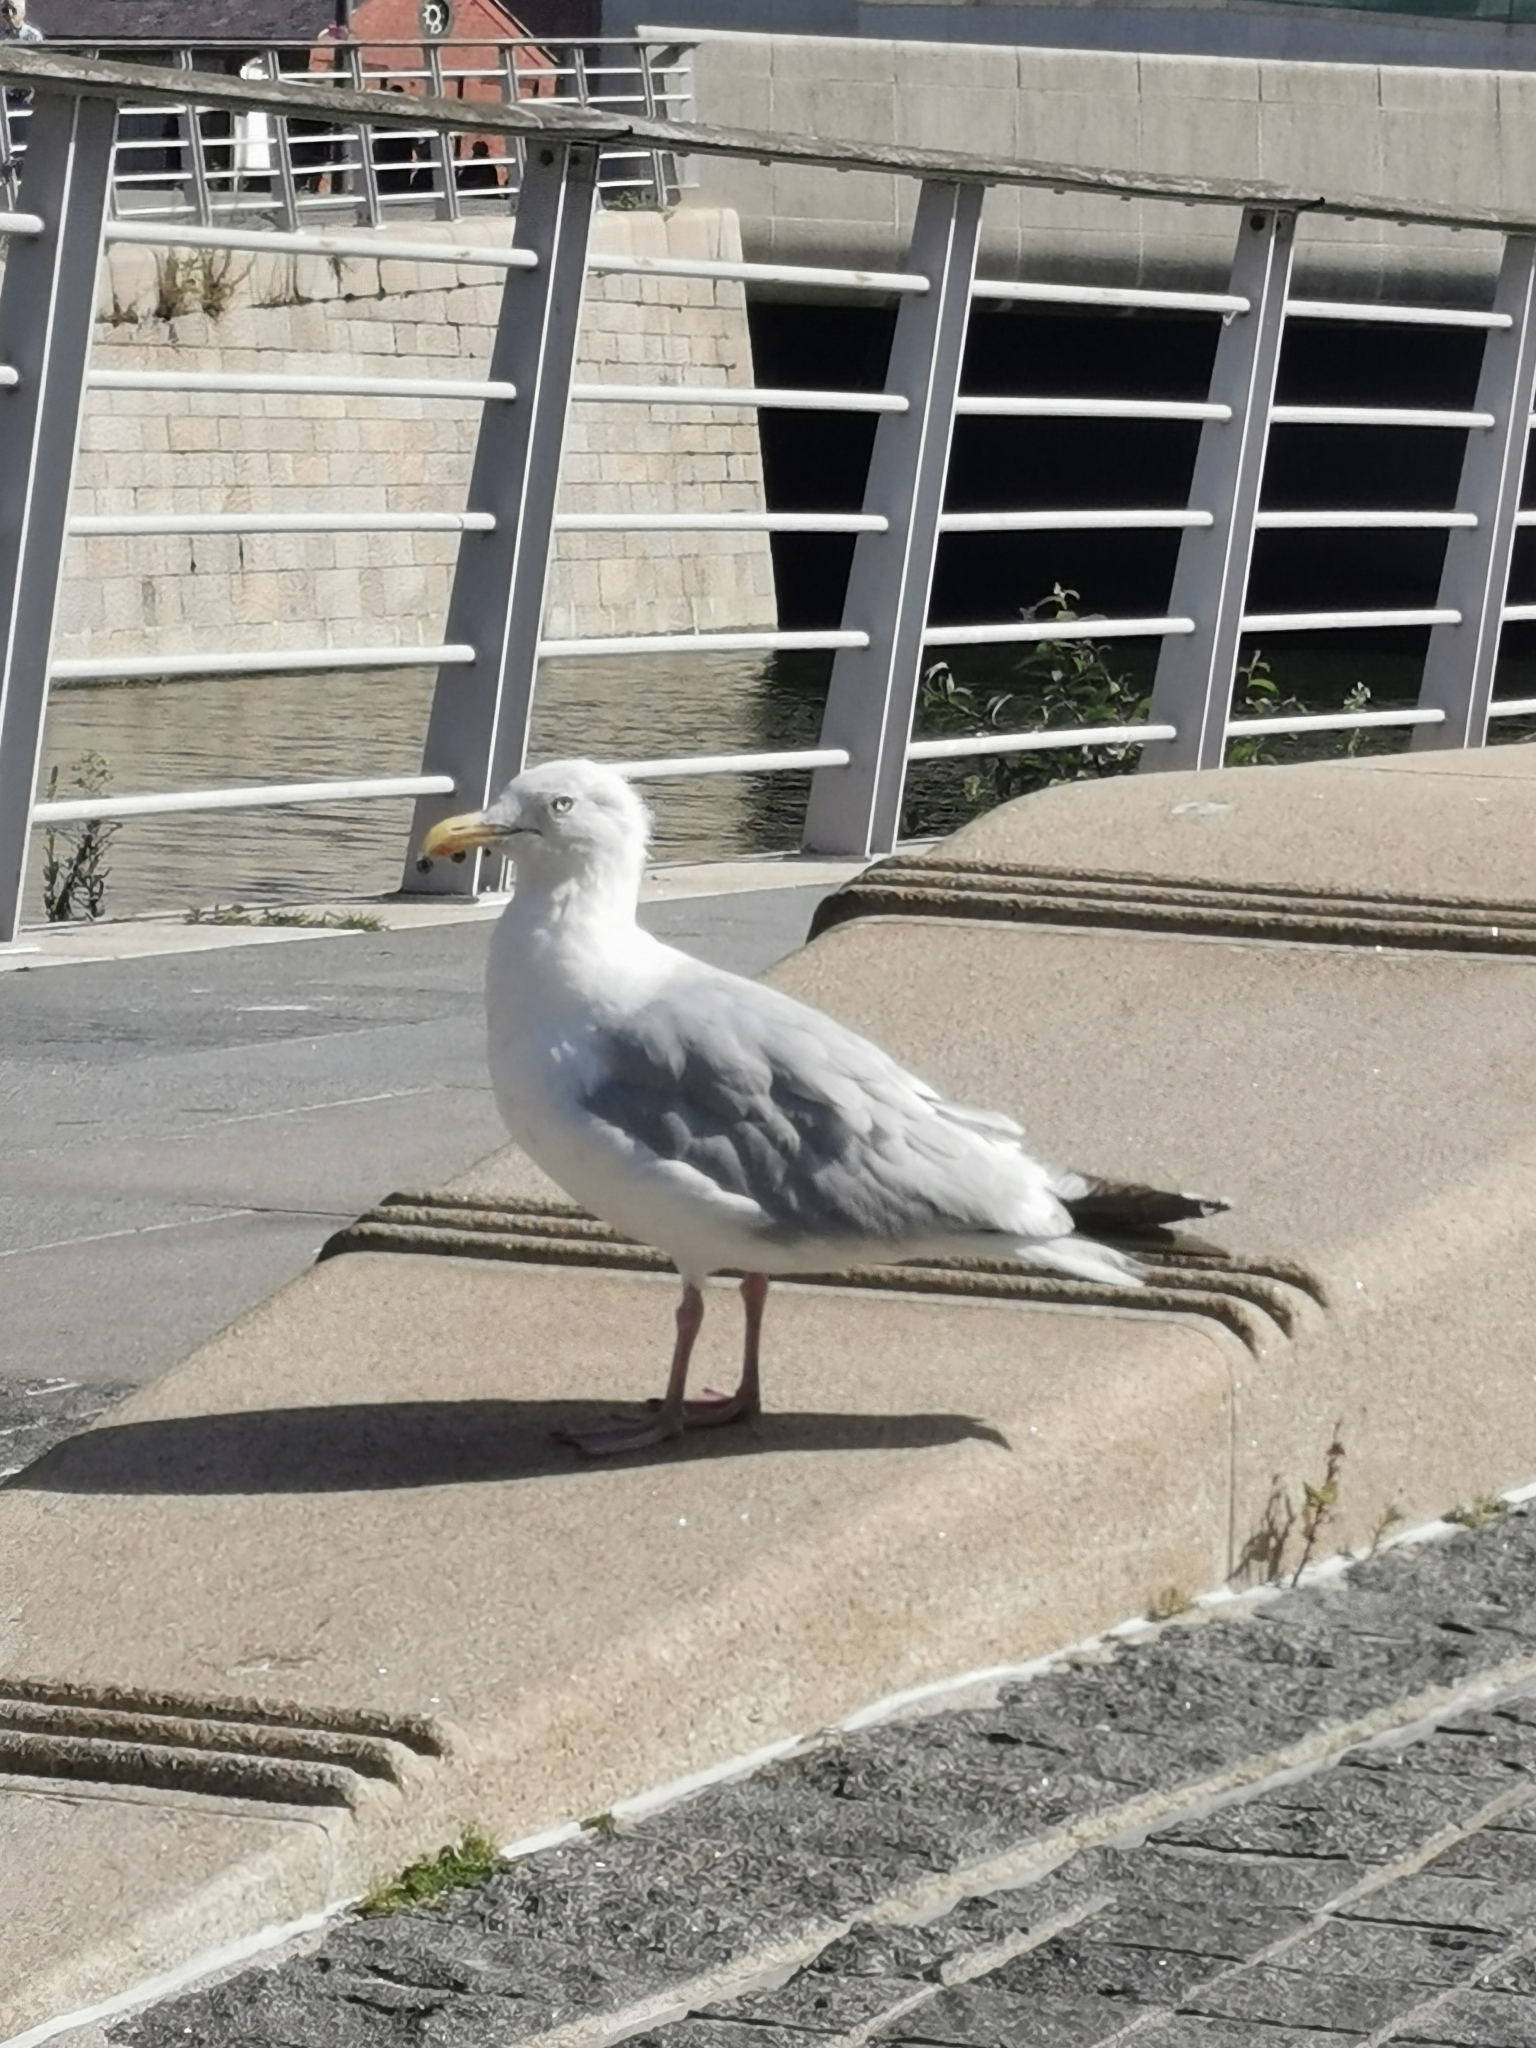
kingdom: Animalia
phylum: Chordata
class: Aves
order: Charadriiformes
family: Laridae
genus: Larus
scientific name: Larus argentatus
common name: Herring gull
